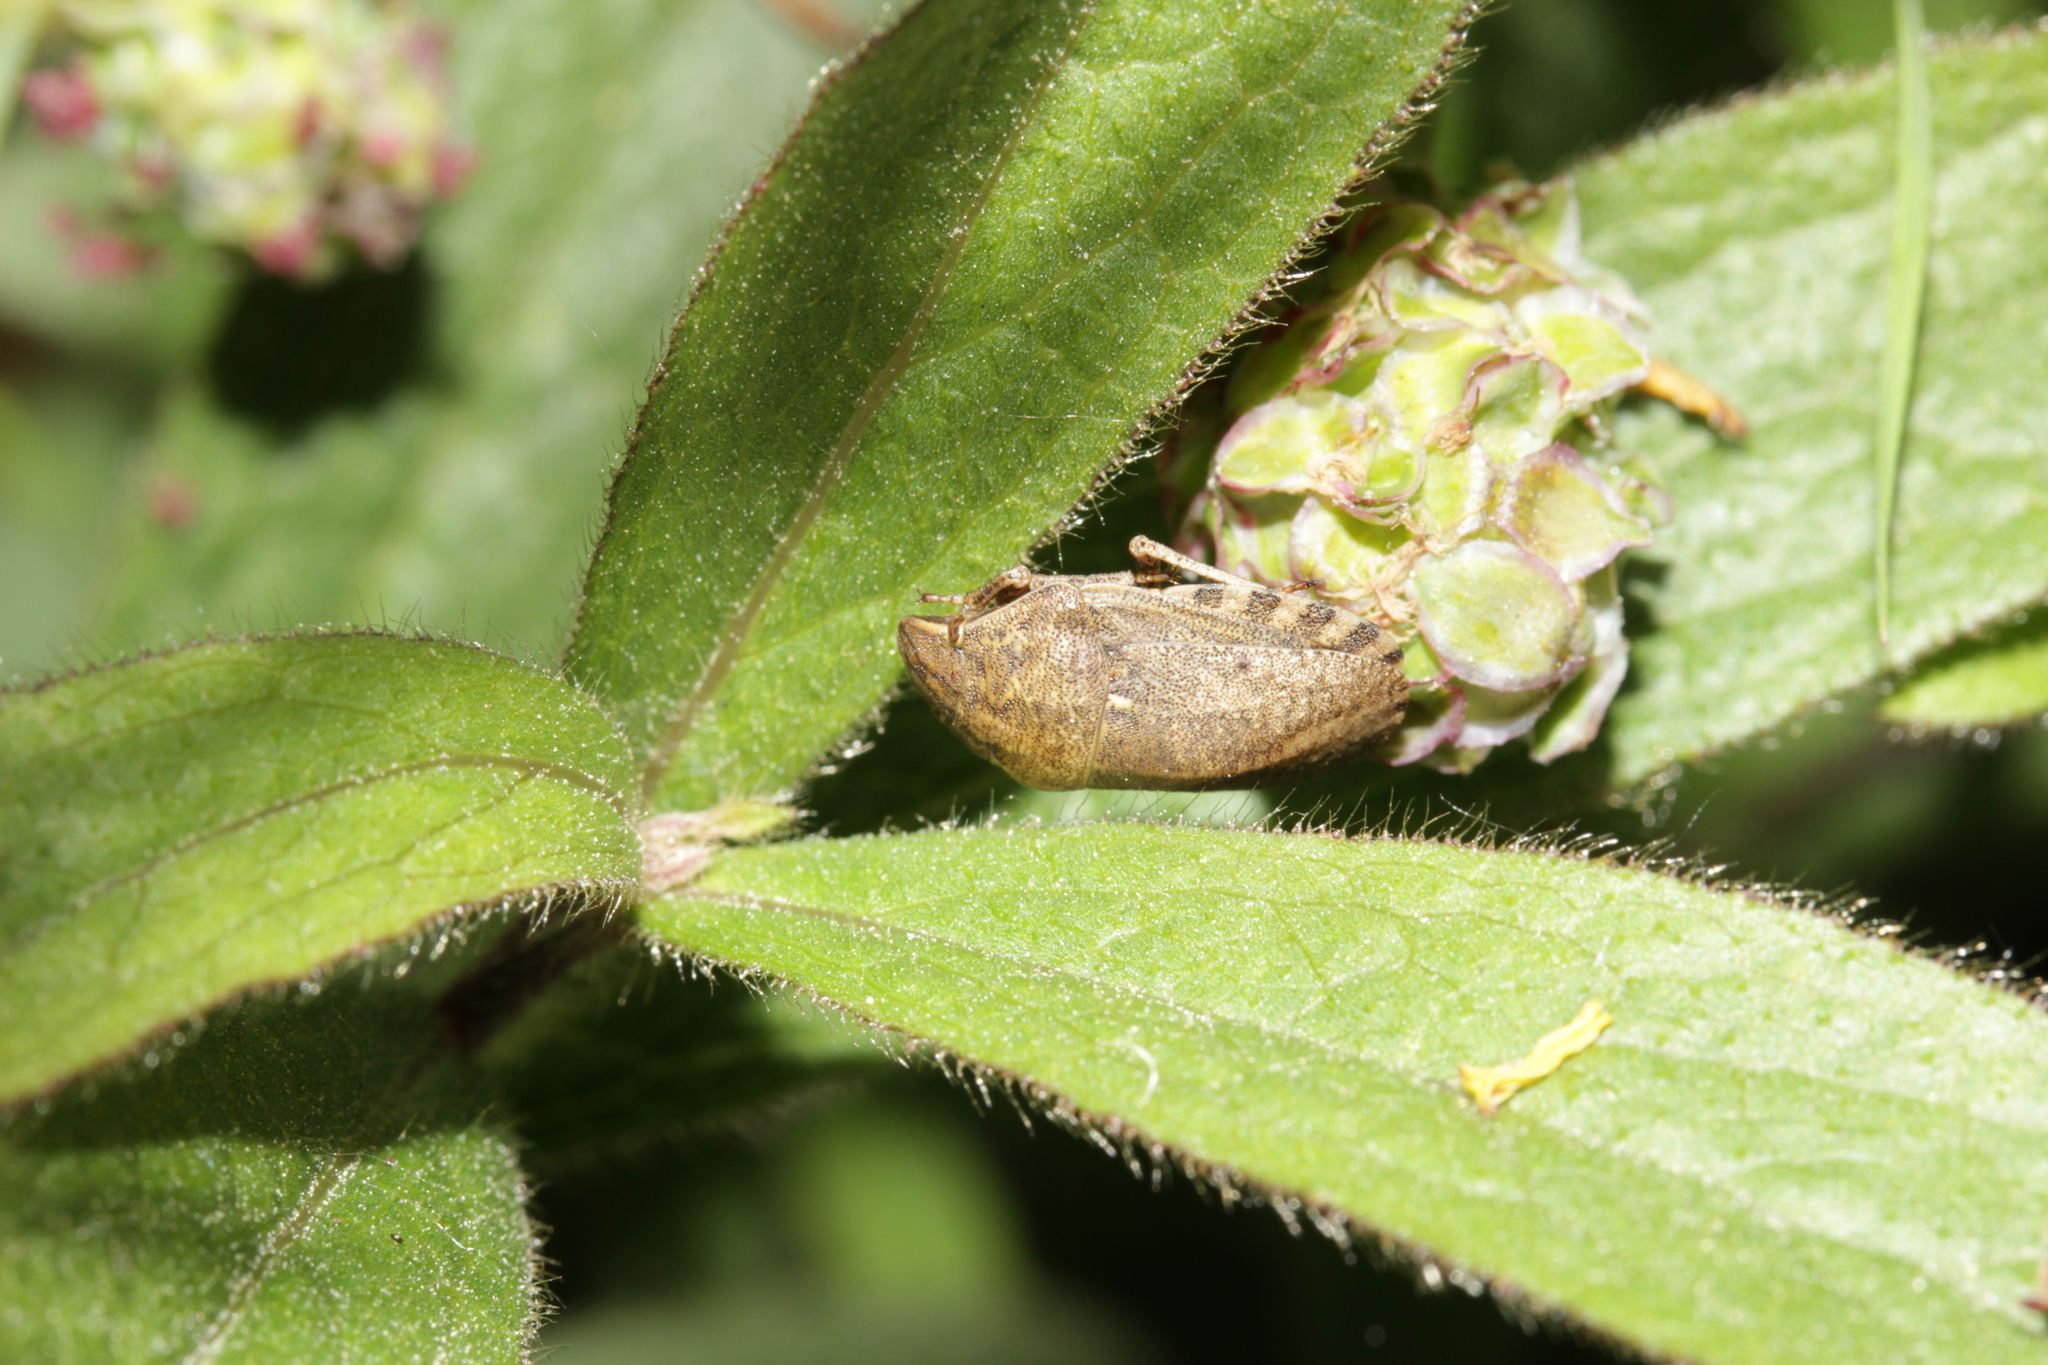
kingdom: Animalia
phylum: Arthropoda
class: Insecta
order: Hemiptera
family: Scutelleridae
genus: Eurygaster
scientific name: Eurygaster maura
